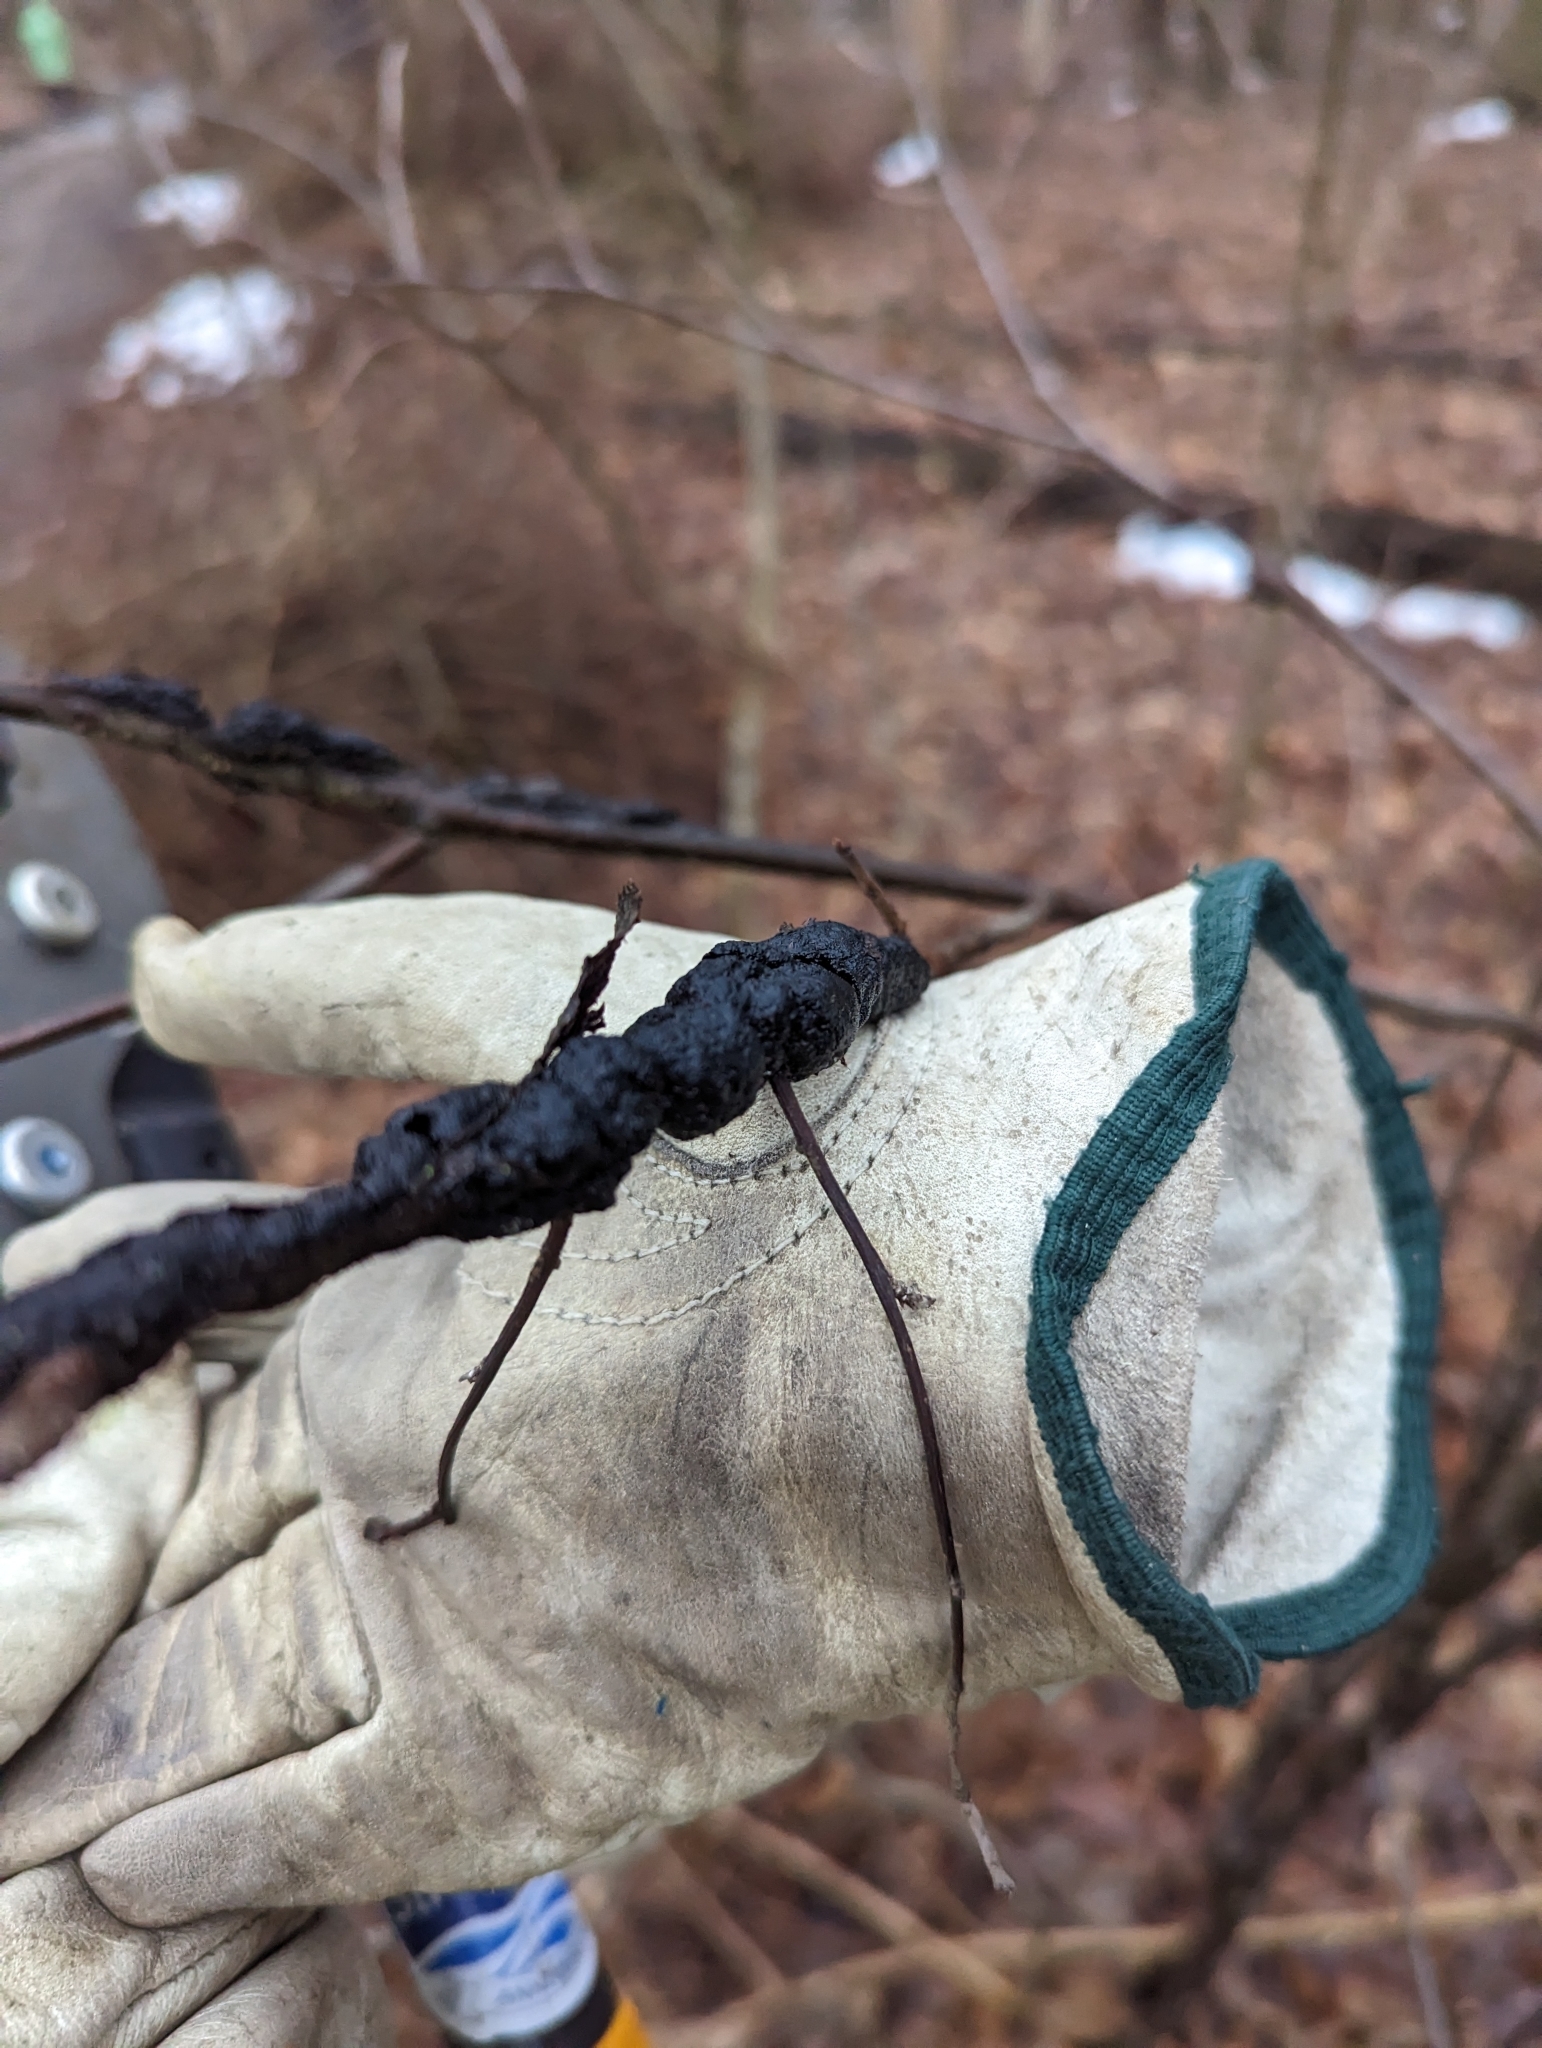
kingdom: Fungi
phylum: Ascomycota
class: Dothideomycetes
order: Venturiales
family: Venturiaceae
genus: Apiosporina
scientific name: Apiosporina morbosa
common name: Black knot
